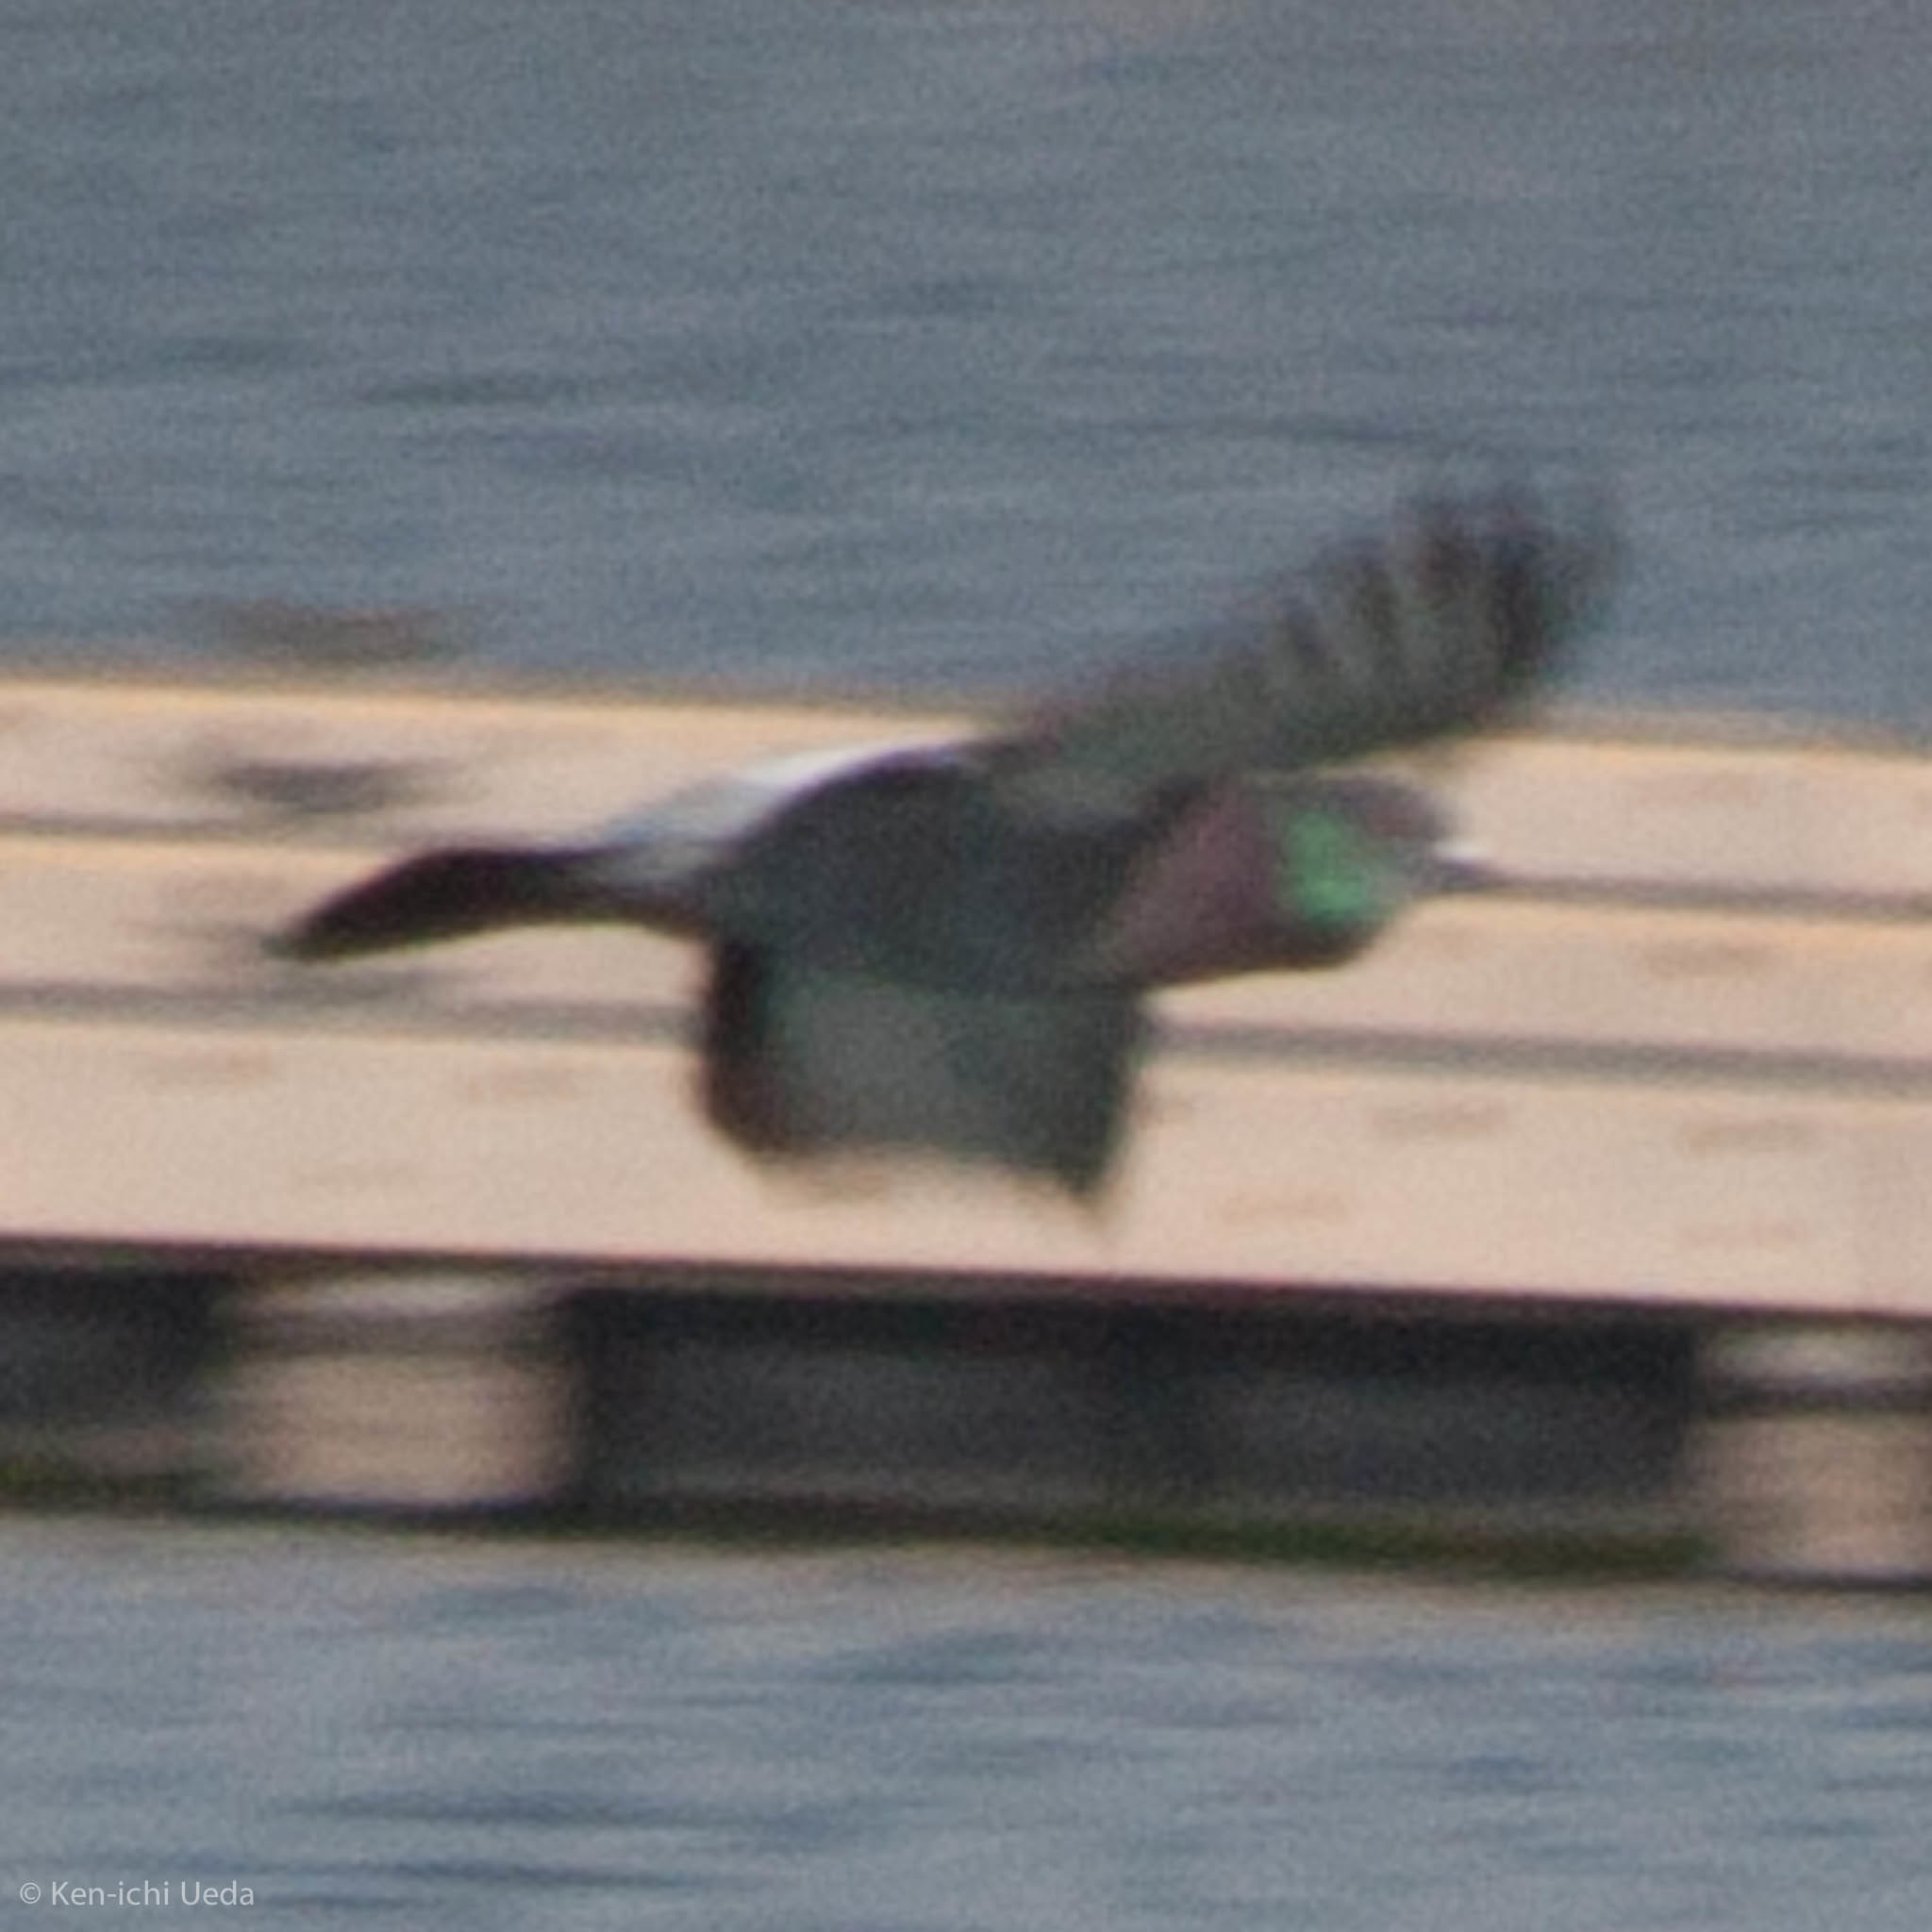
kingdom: Animalia
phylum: Chordata
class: Aves
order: Columbiformes
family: Columbidae
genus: Columba
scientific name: Columba livia
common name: Rock pigeon
